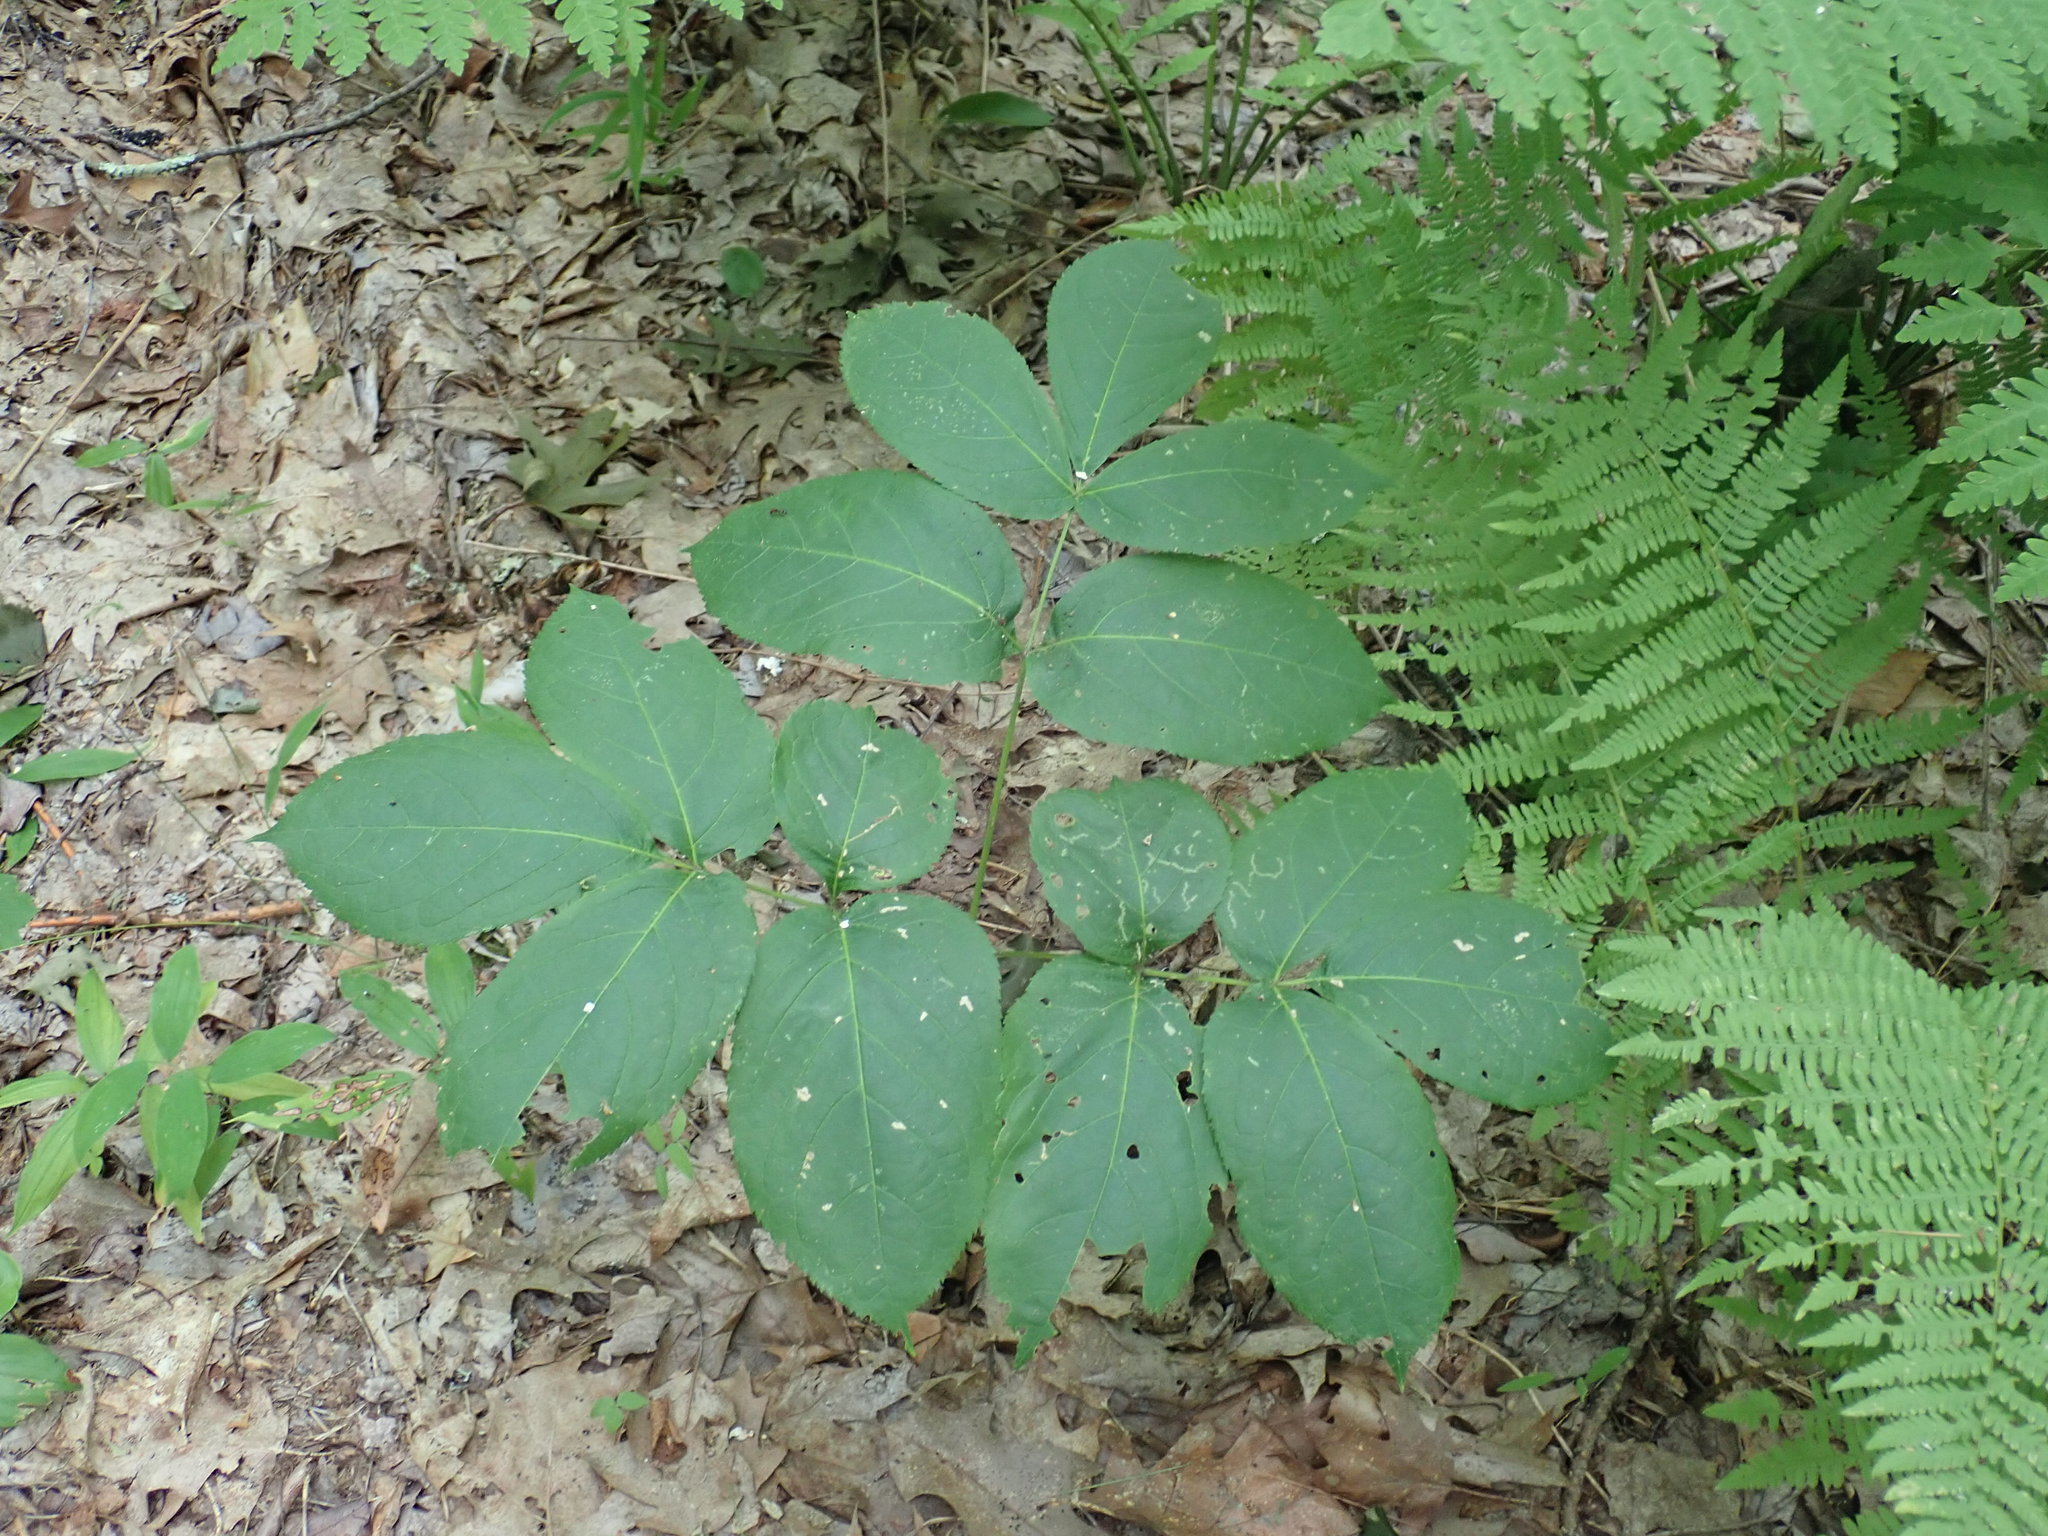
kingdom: Plantae
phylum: Tracheophyta
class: Magnoliopsida
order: Apiales
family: Araliaceae
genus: Aralia
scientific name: Aralia nudicaulis
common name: Wild sarsaparilla
